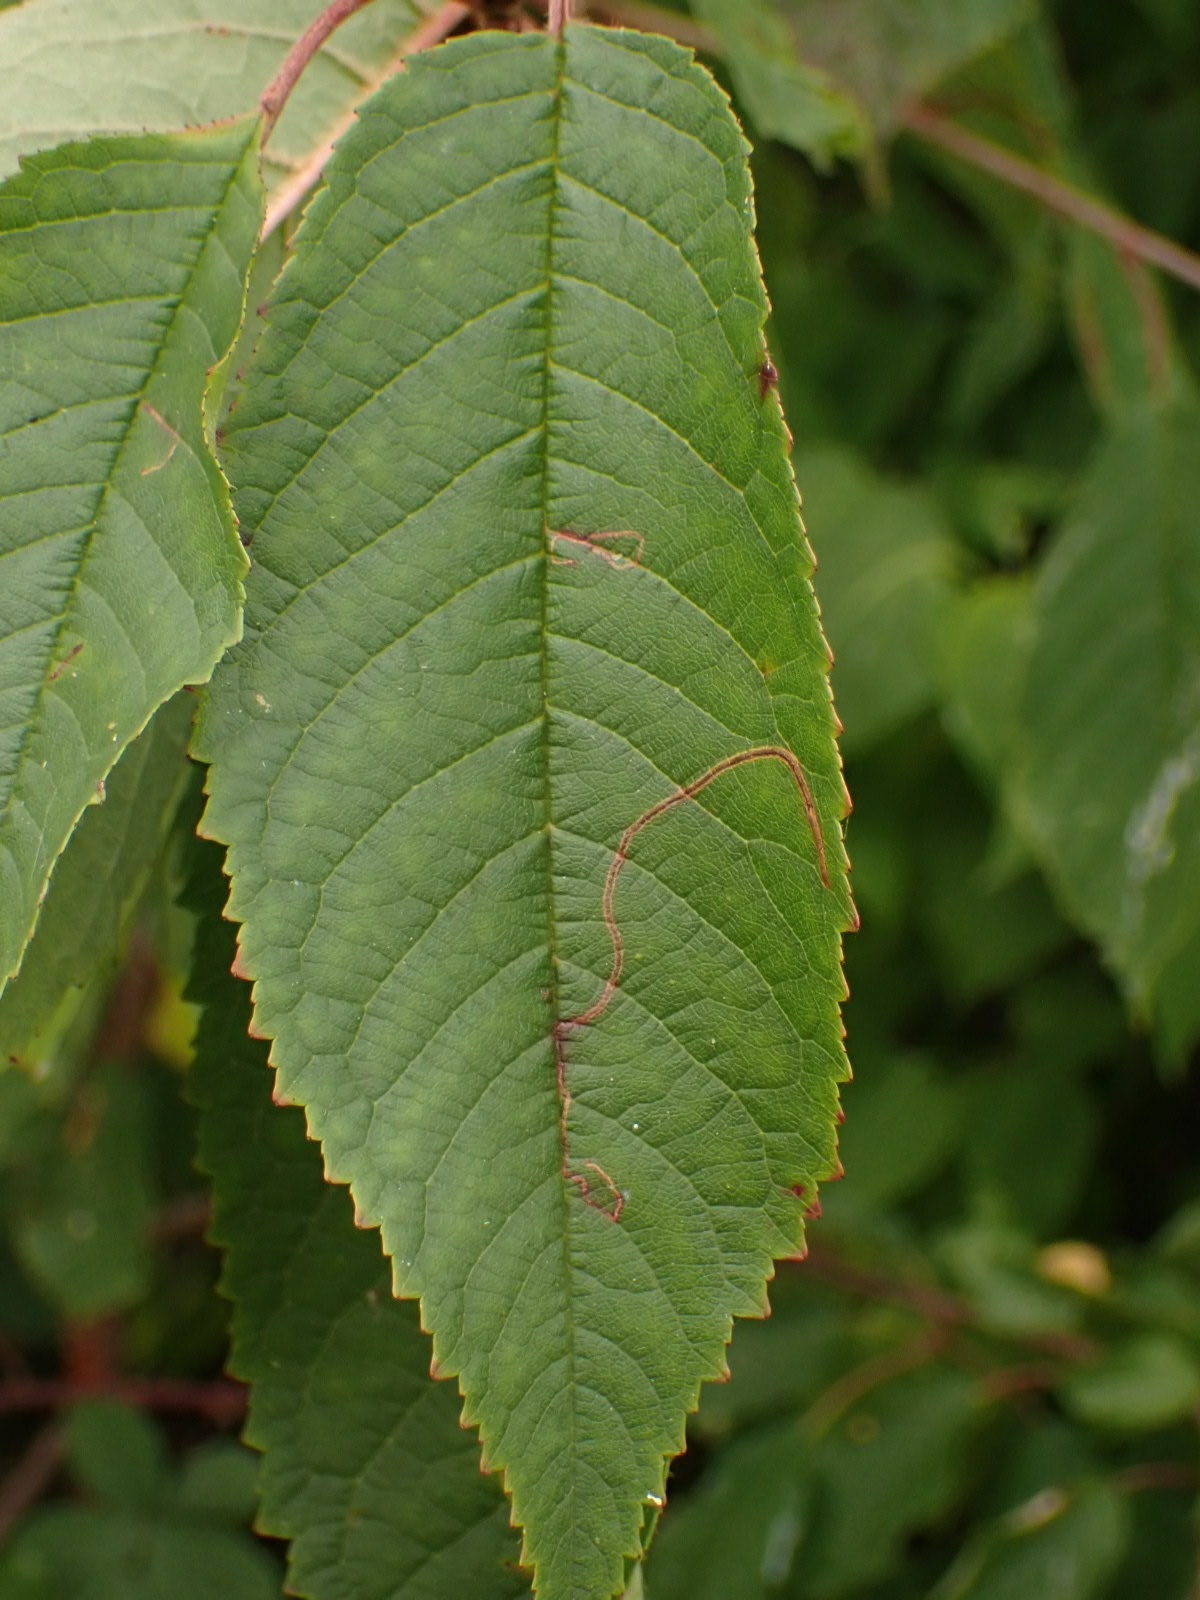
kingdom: Animalia
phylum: Arthropoda
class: Insecta
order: Lepidoptera
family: Lyonetiidae
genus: Lyonetia
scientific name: Lyonetia clerkella
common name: Apple leaf miner
